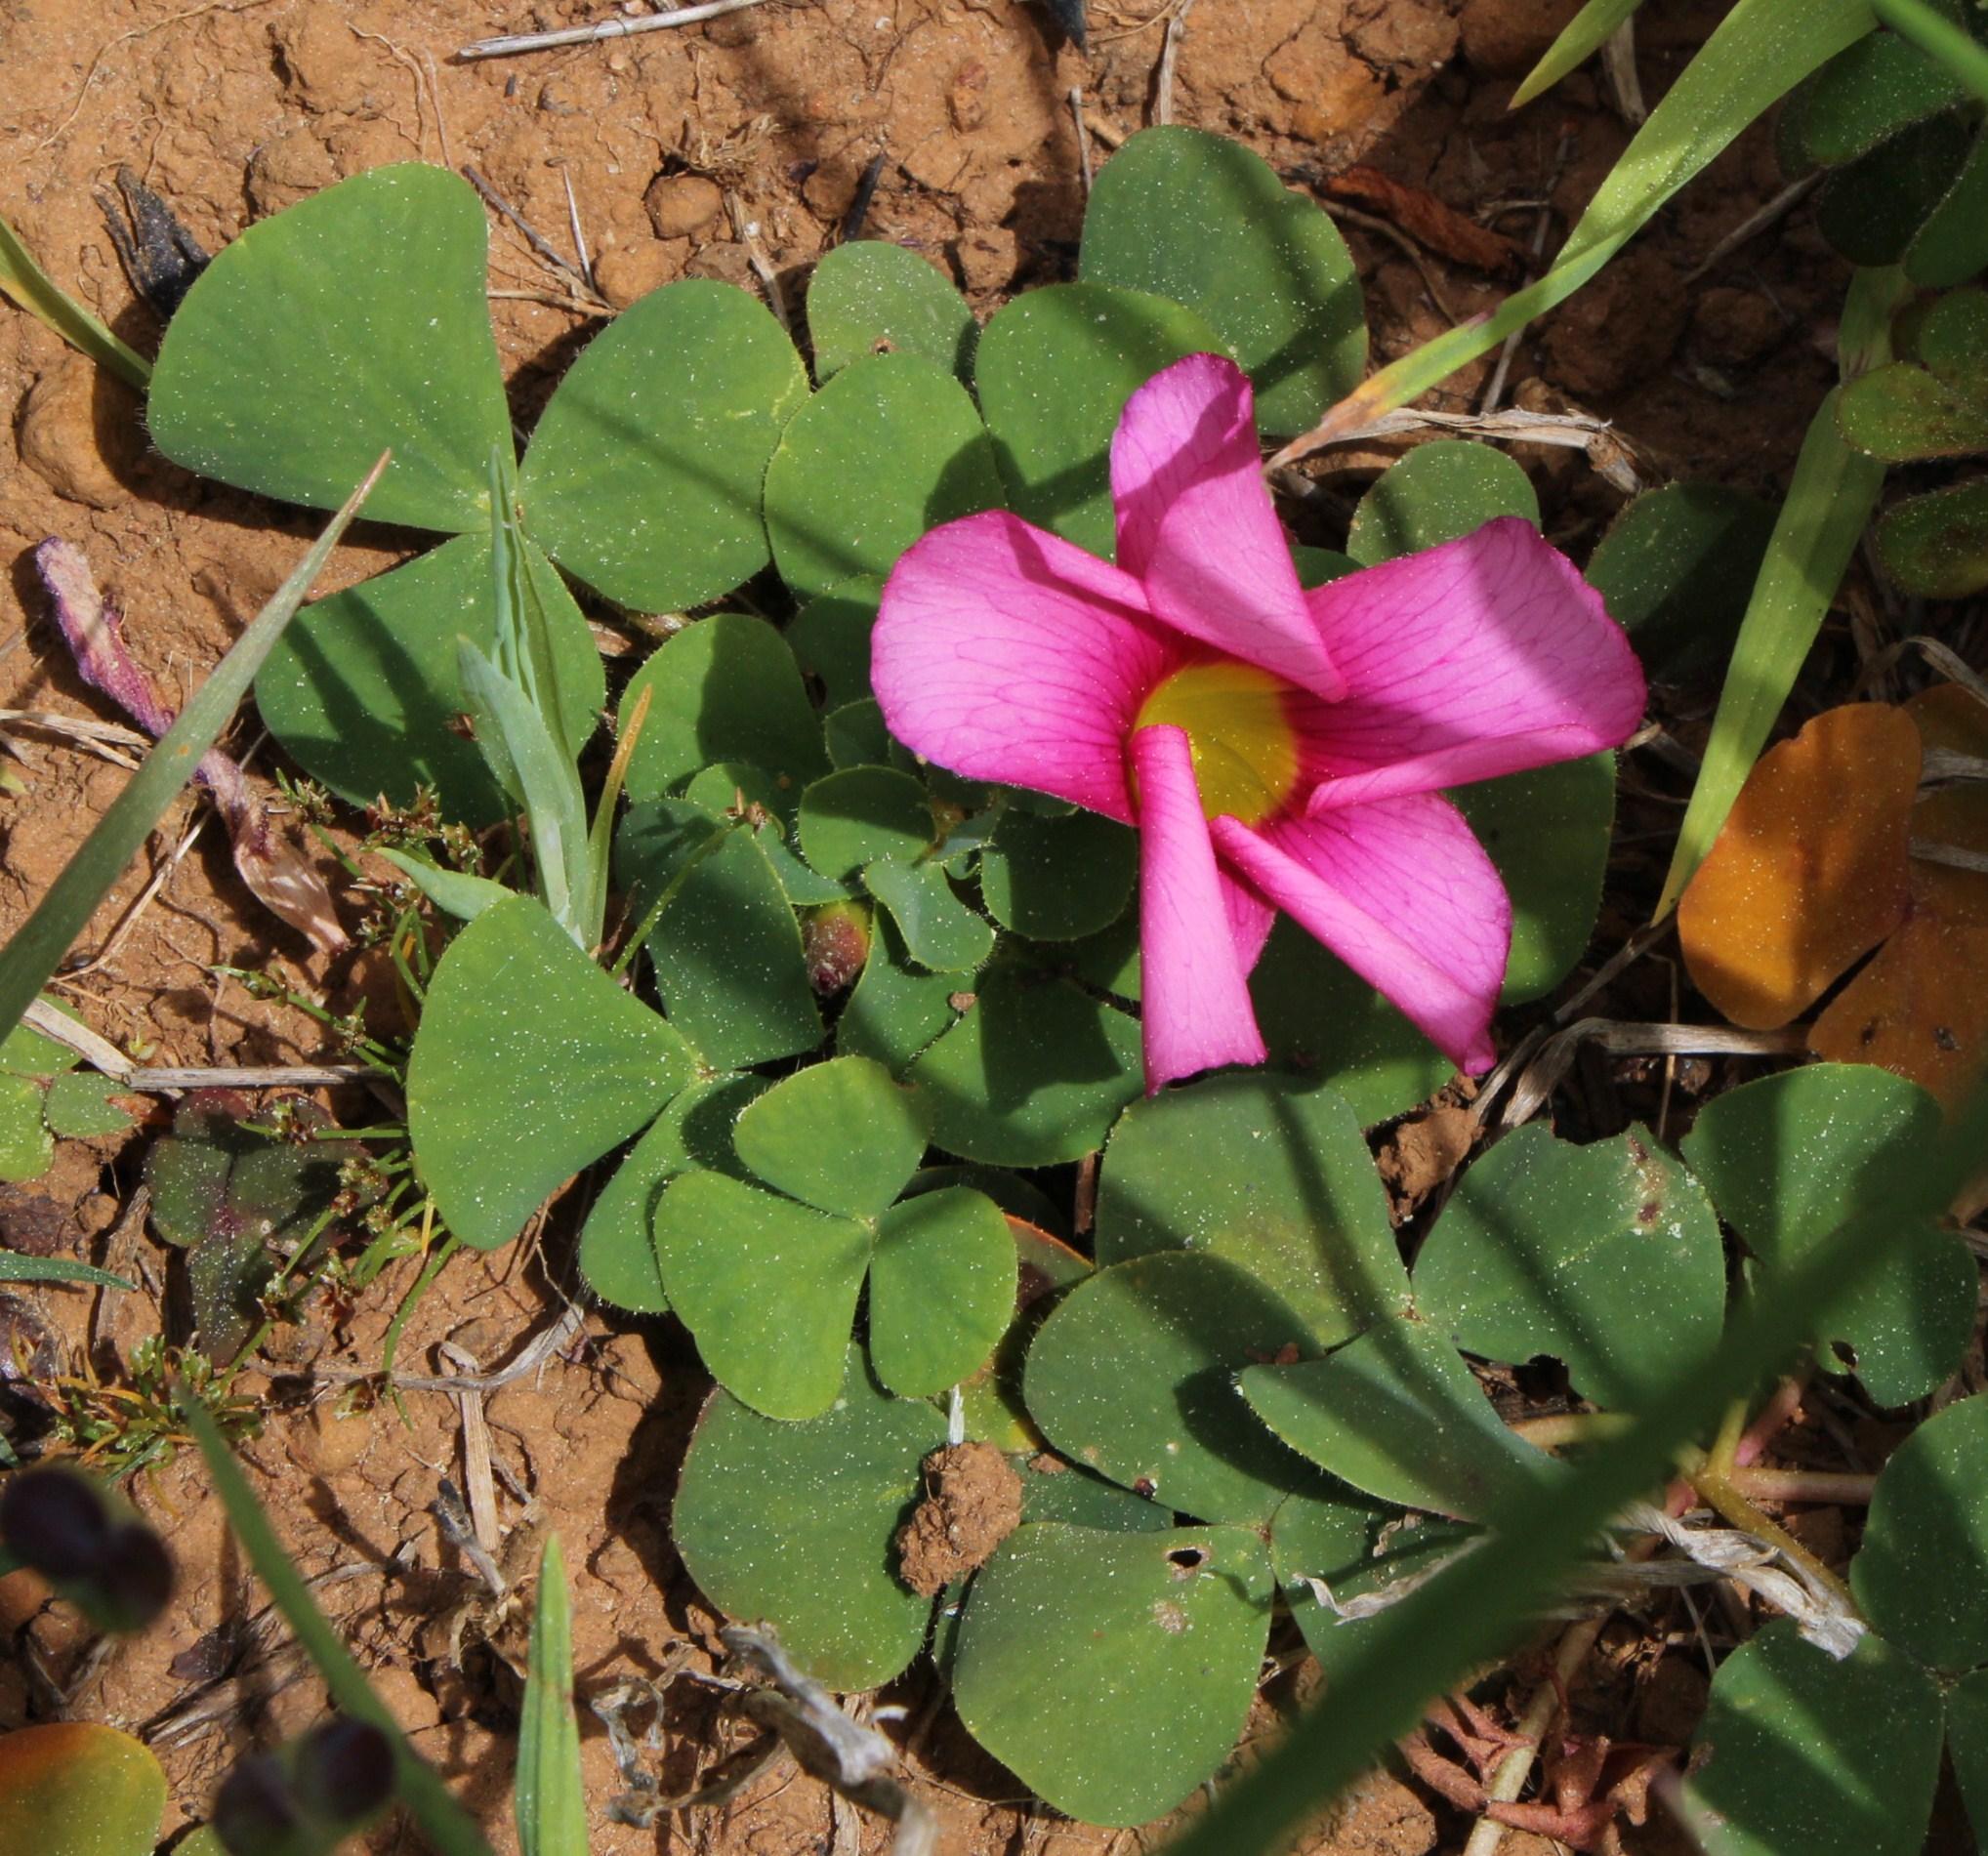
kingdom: Plantae
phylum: Tracheophyta
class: Magnoliopsida
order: Oxalidales
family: Oxalidaceae
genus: Oxalis
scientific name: Oxalis purpurea
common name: Purple woodsorrel
